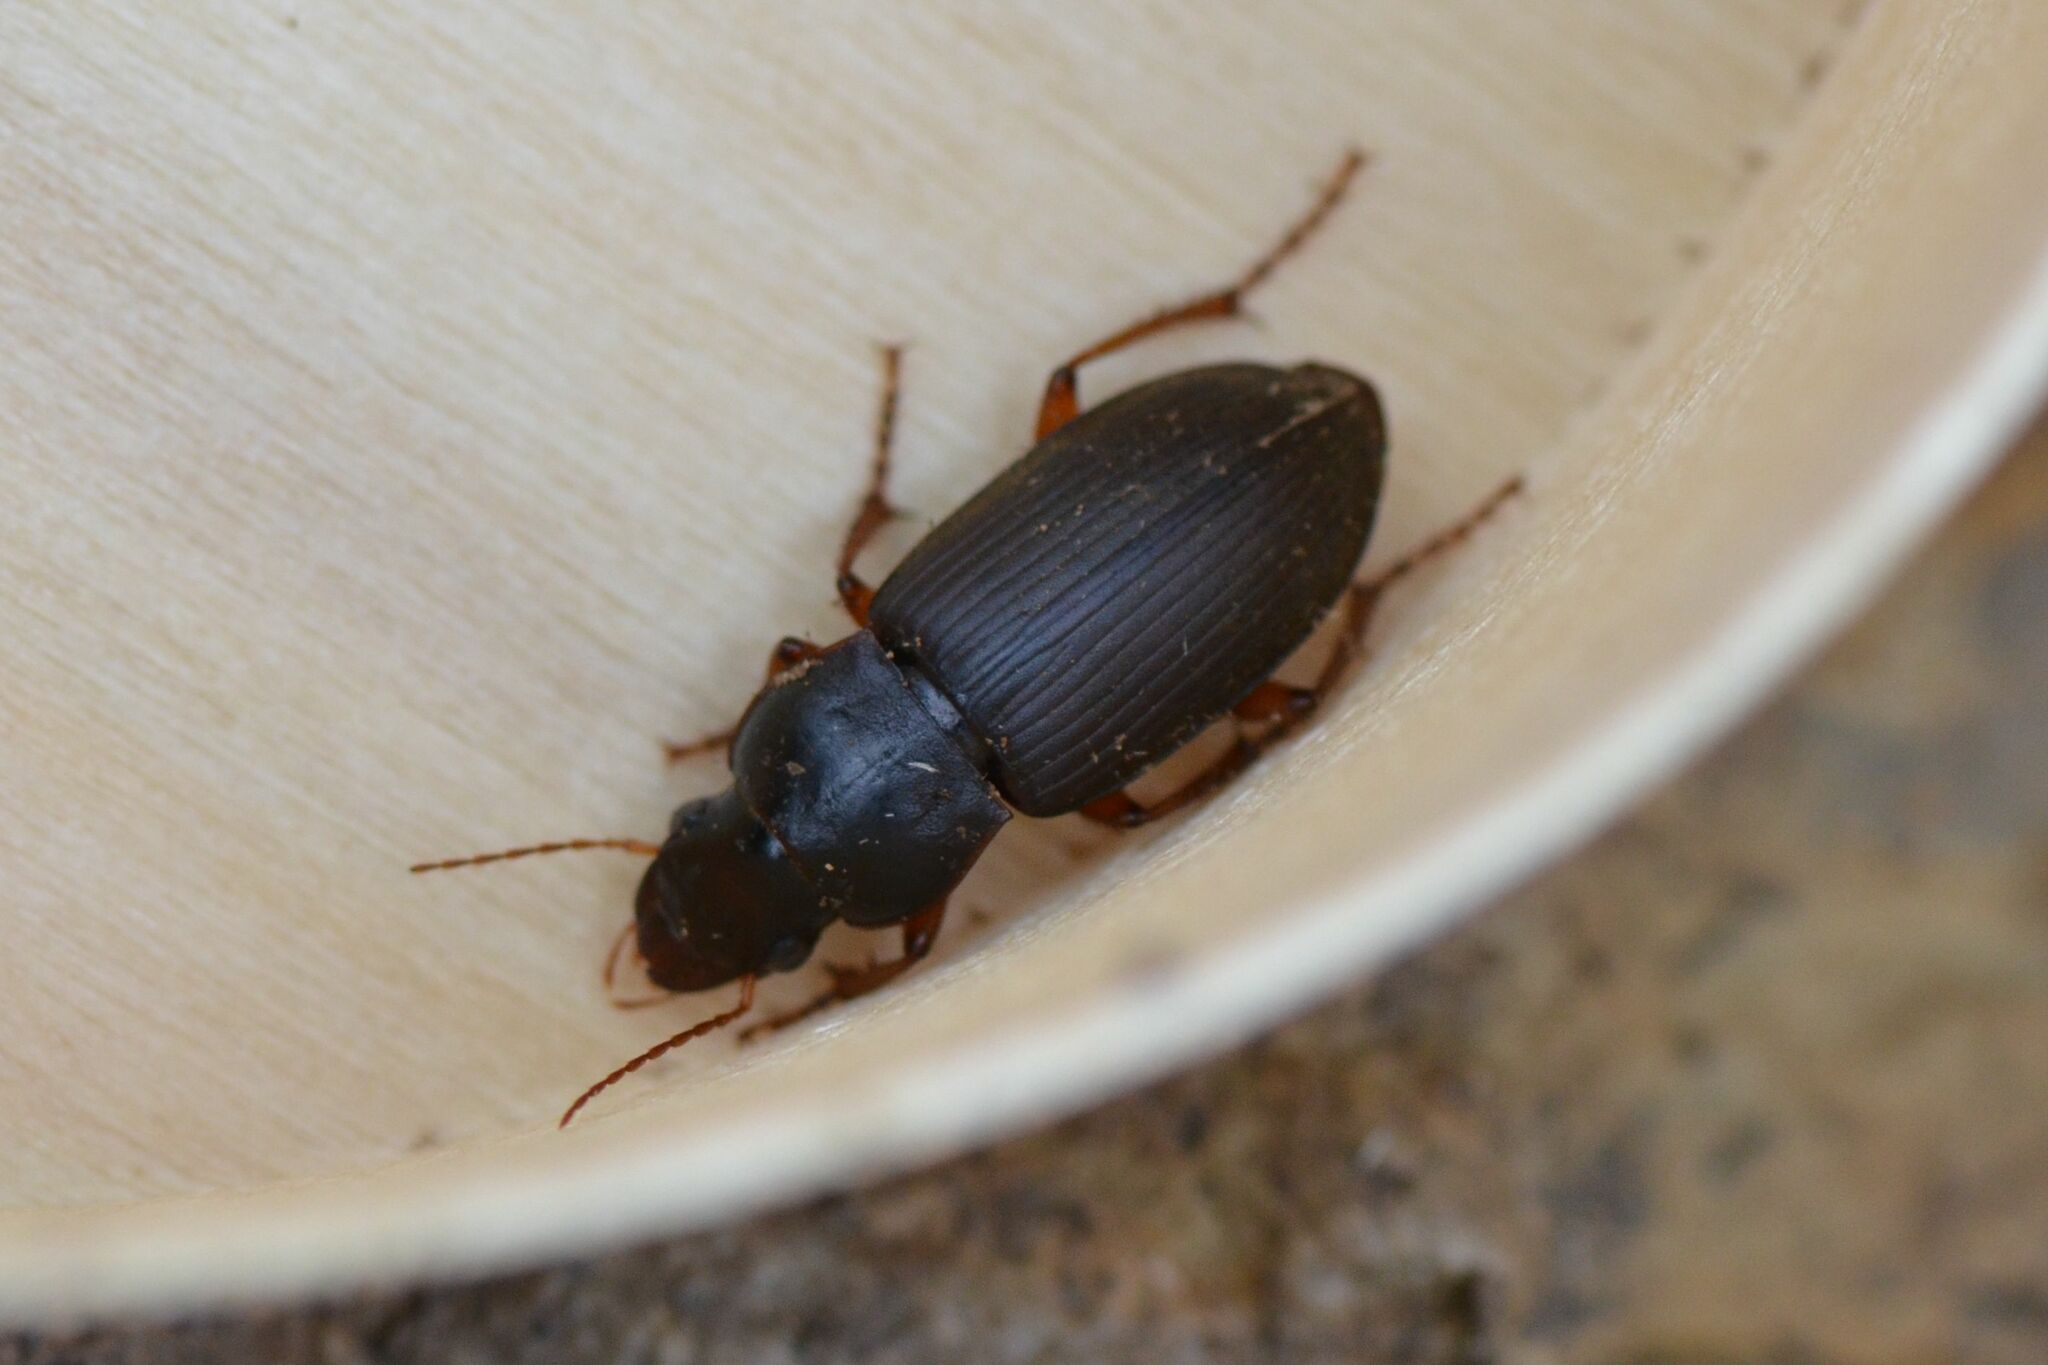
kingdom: Animalia
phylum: Arthropoda
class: Insecta
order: Coleoptera
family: Carabidae
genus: Harpalus
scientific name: Harpalus rufipes
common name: Strawberry harp ground beetle
